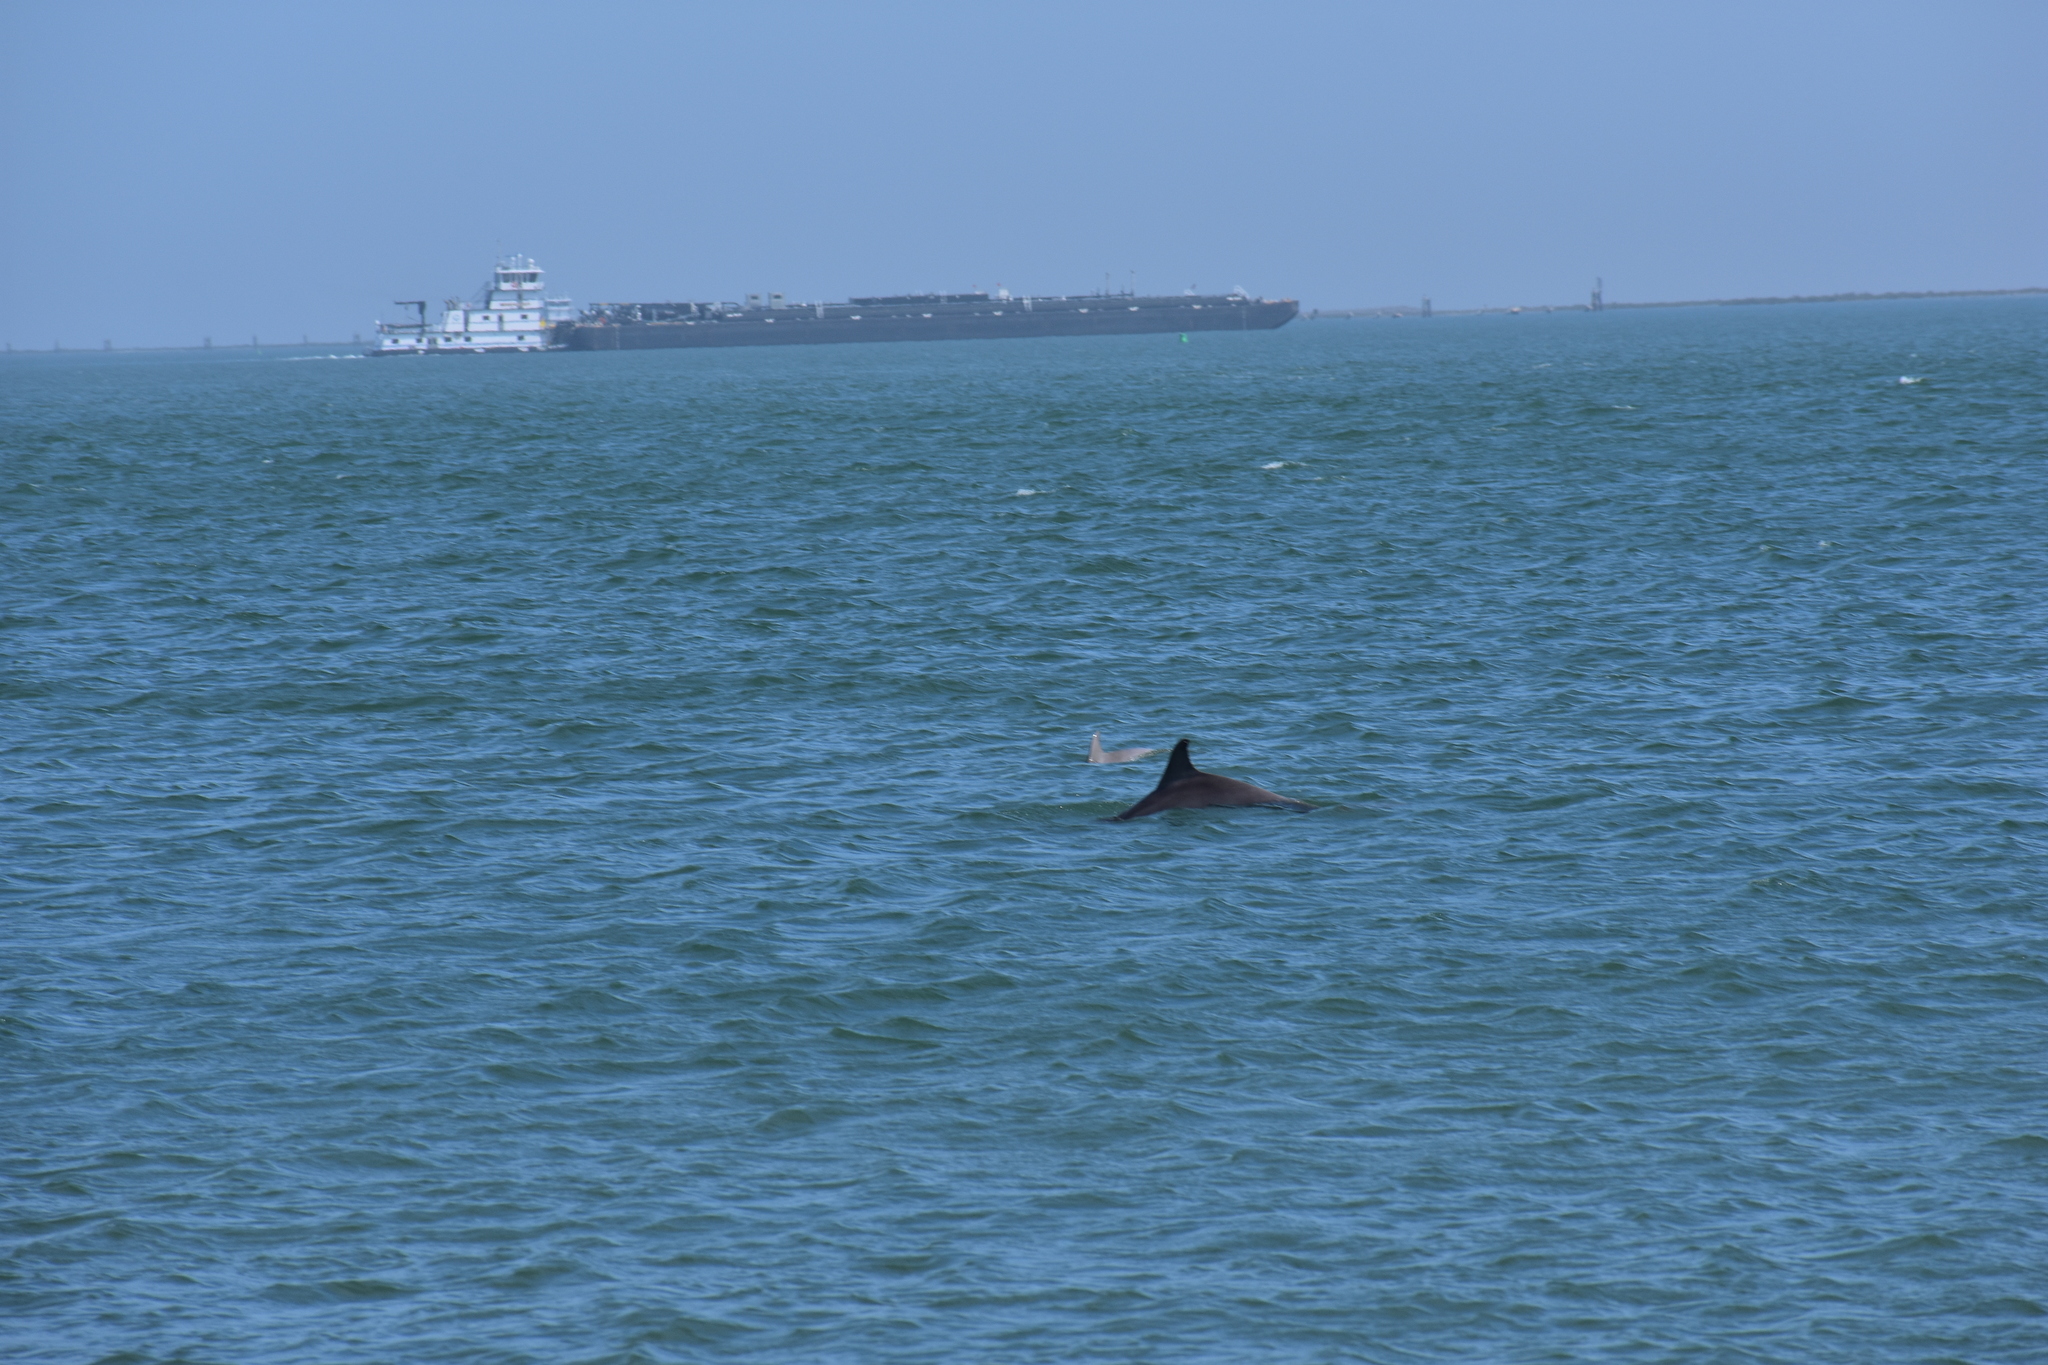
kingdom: Animalia
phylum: Chordata
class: Mammalia
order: Cetacea
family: Delphinidae
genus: Tursiops
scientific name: Tursiops truncatus
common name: Bottlenose dolphin
